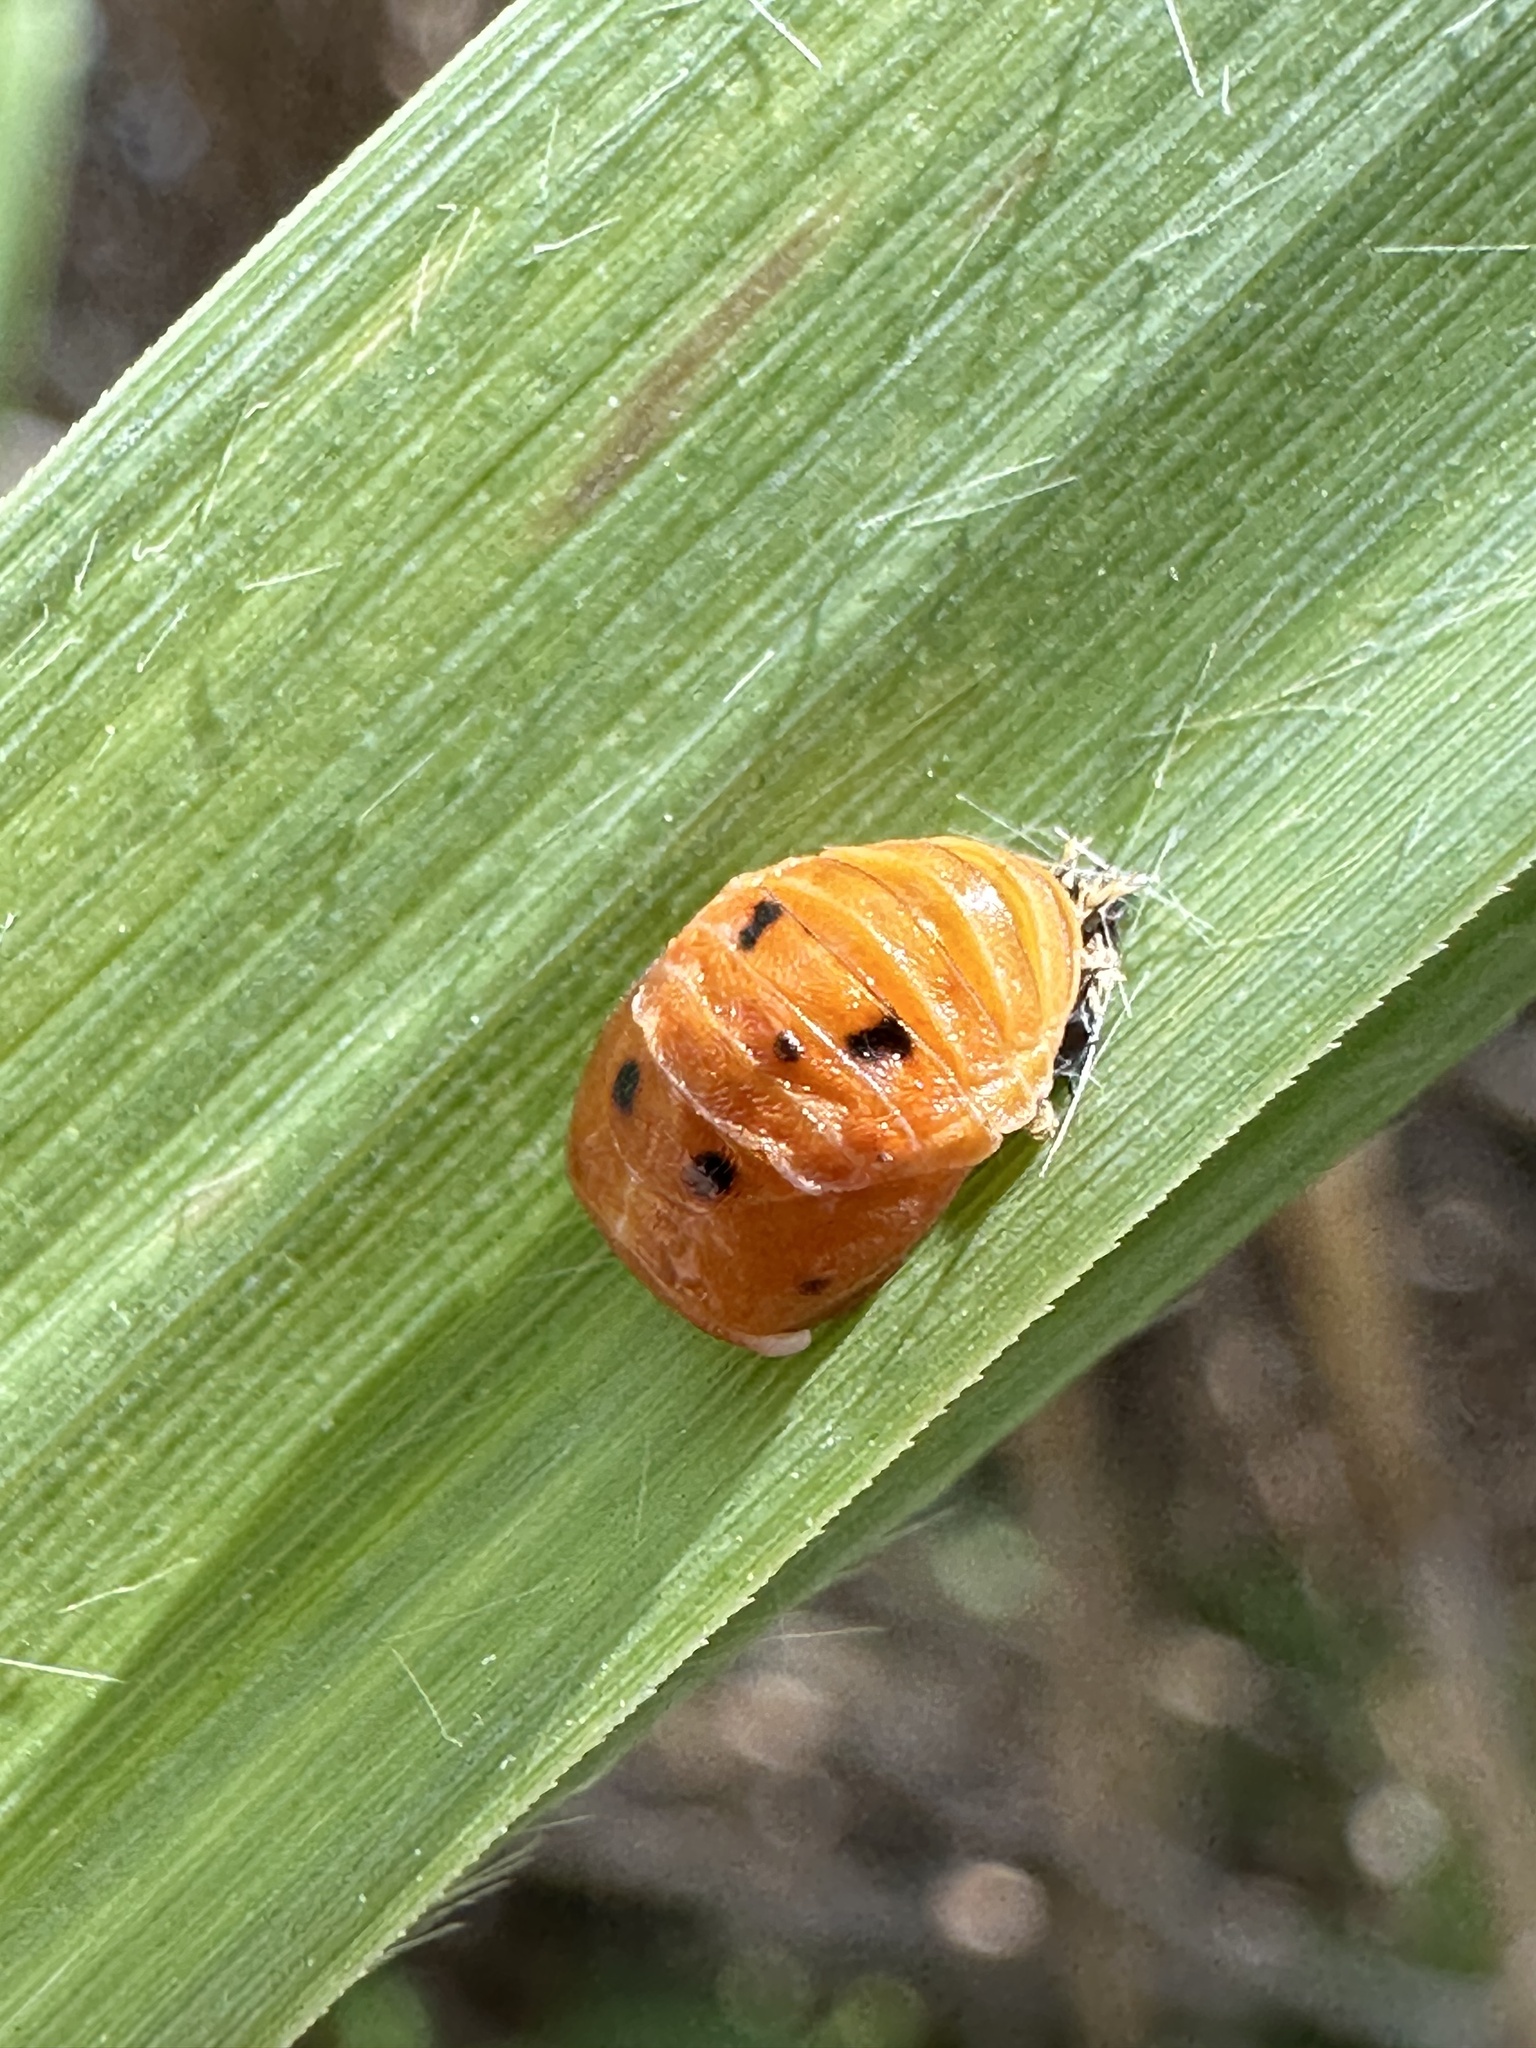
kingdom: Animalia
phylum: Arthropoda
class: Insecta
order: Coleoptera
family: Coccinellidae
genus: Harmonia
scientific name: Harmonia axyridis
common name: Harlequin ladybird
